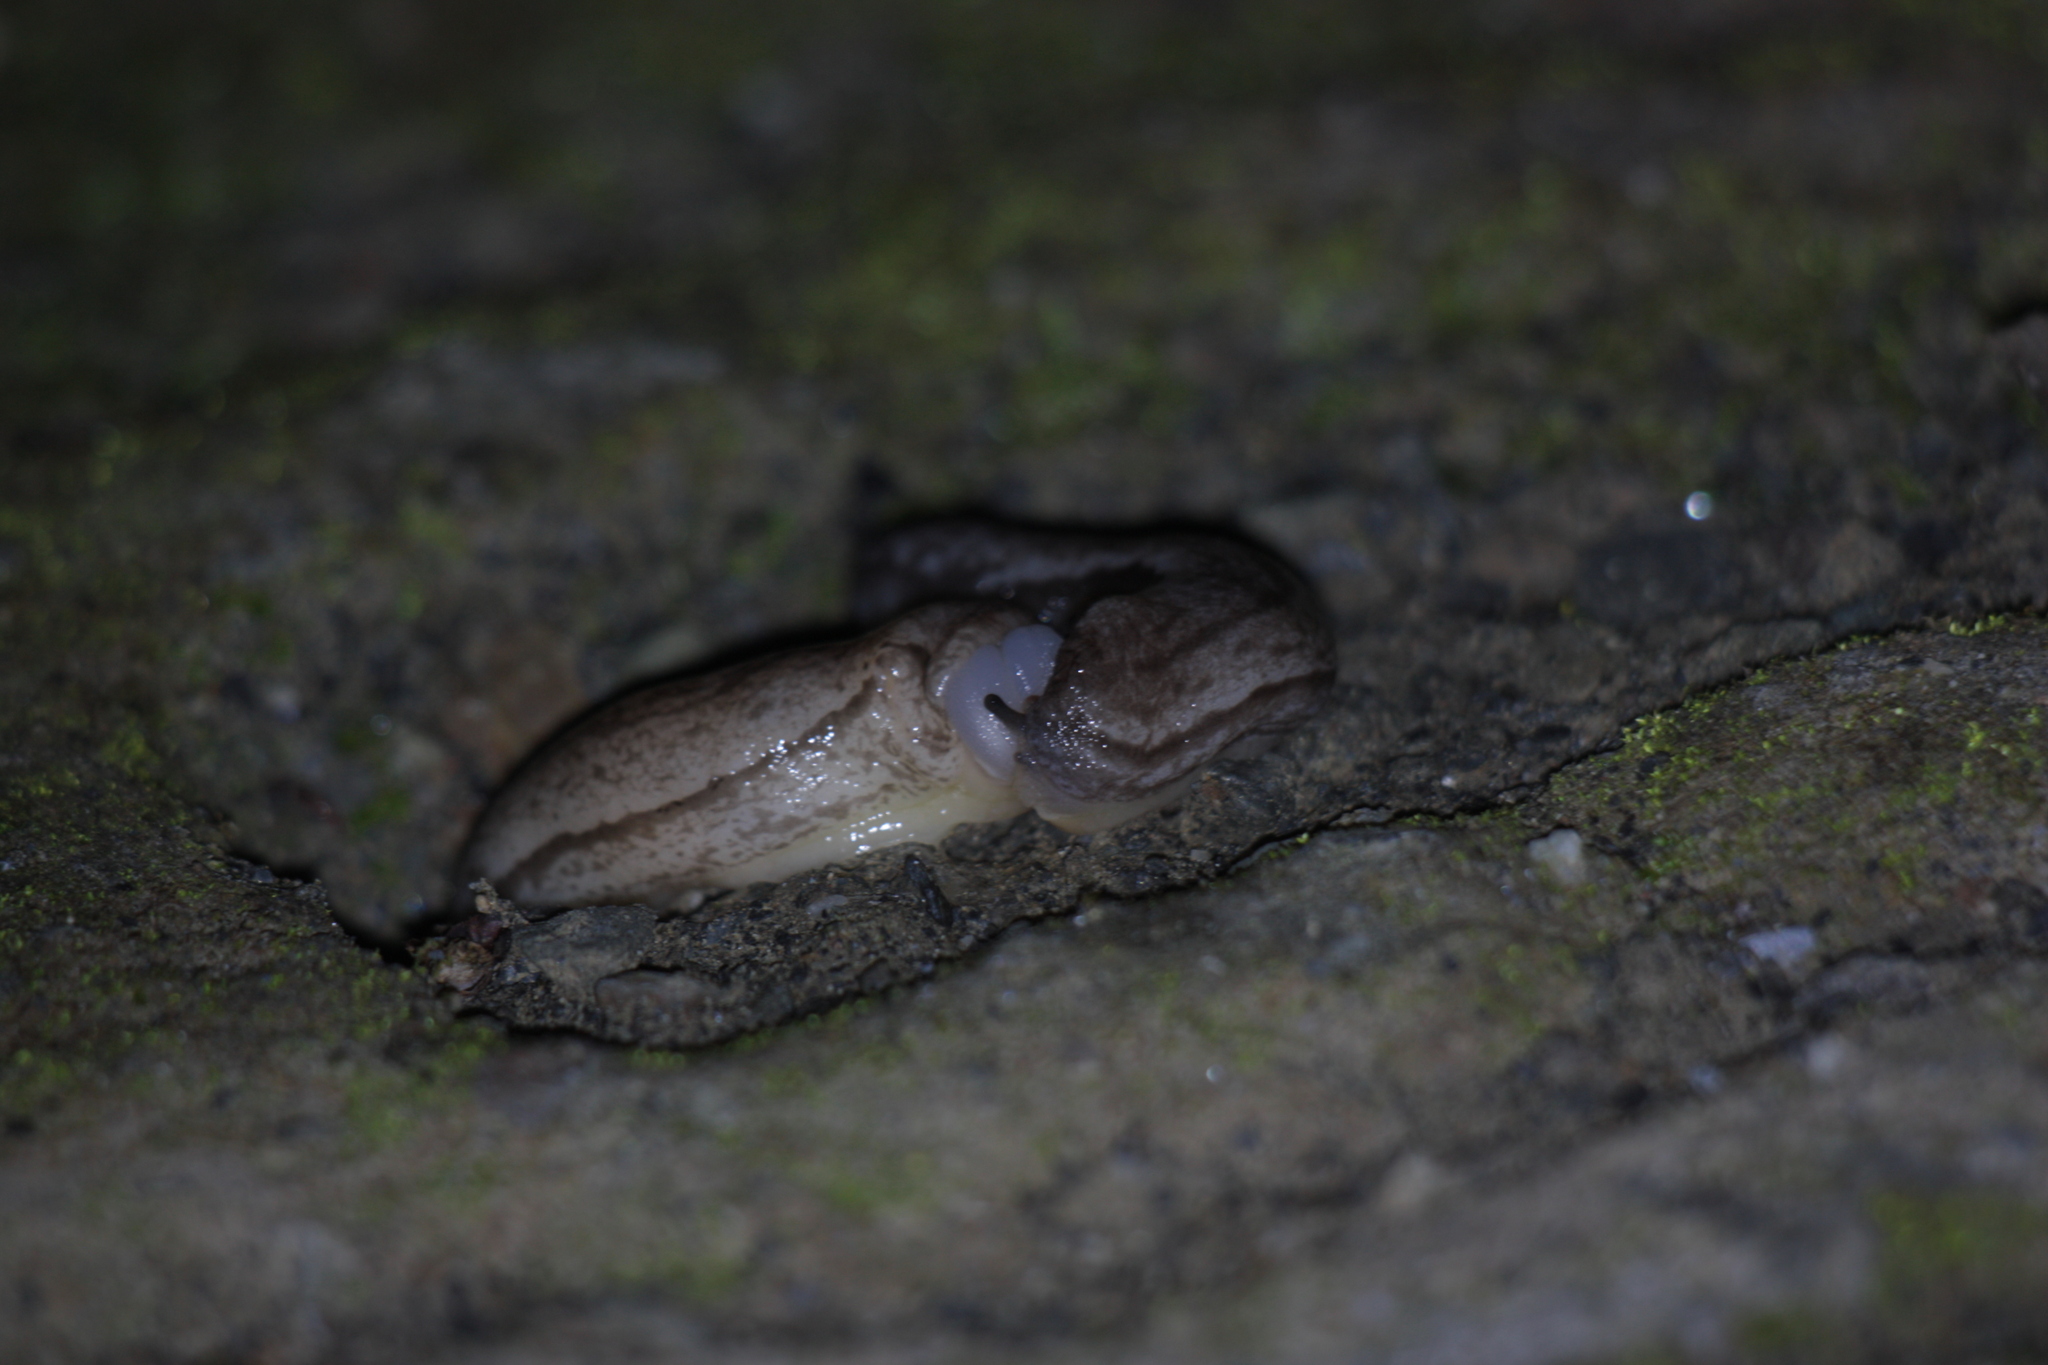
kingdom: Animalia
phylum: Mollusca
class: Gastropoda
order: Stylommatophora
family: Philomycidae
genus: Meghimatium
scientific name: Meghimatium bilineatum
